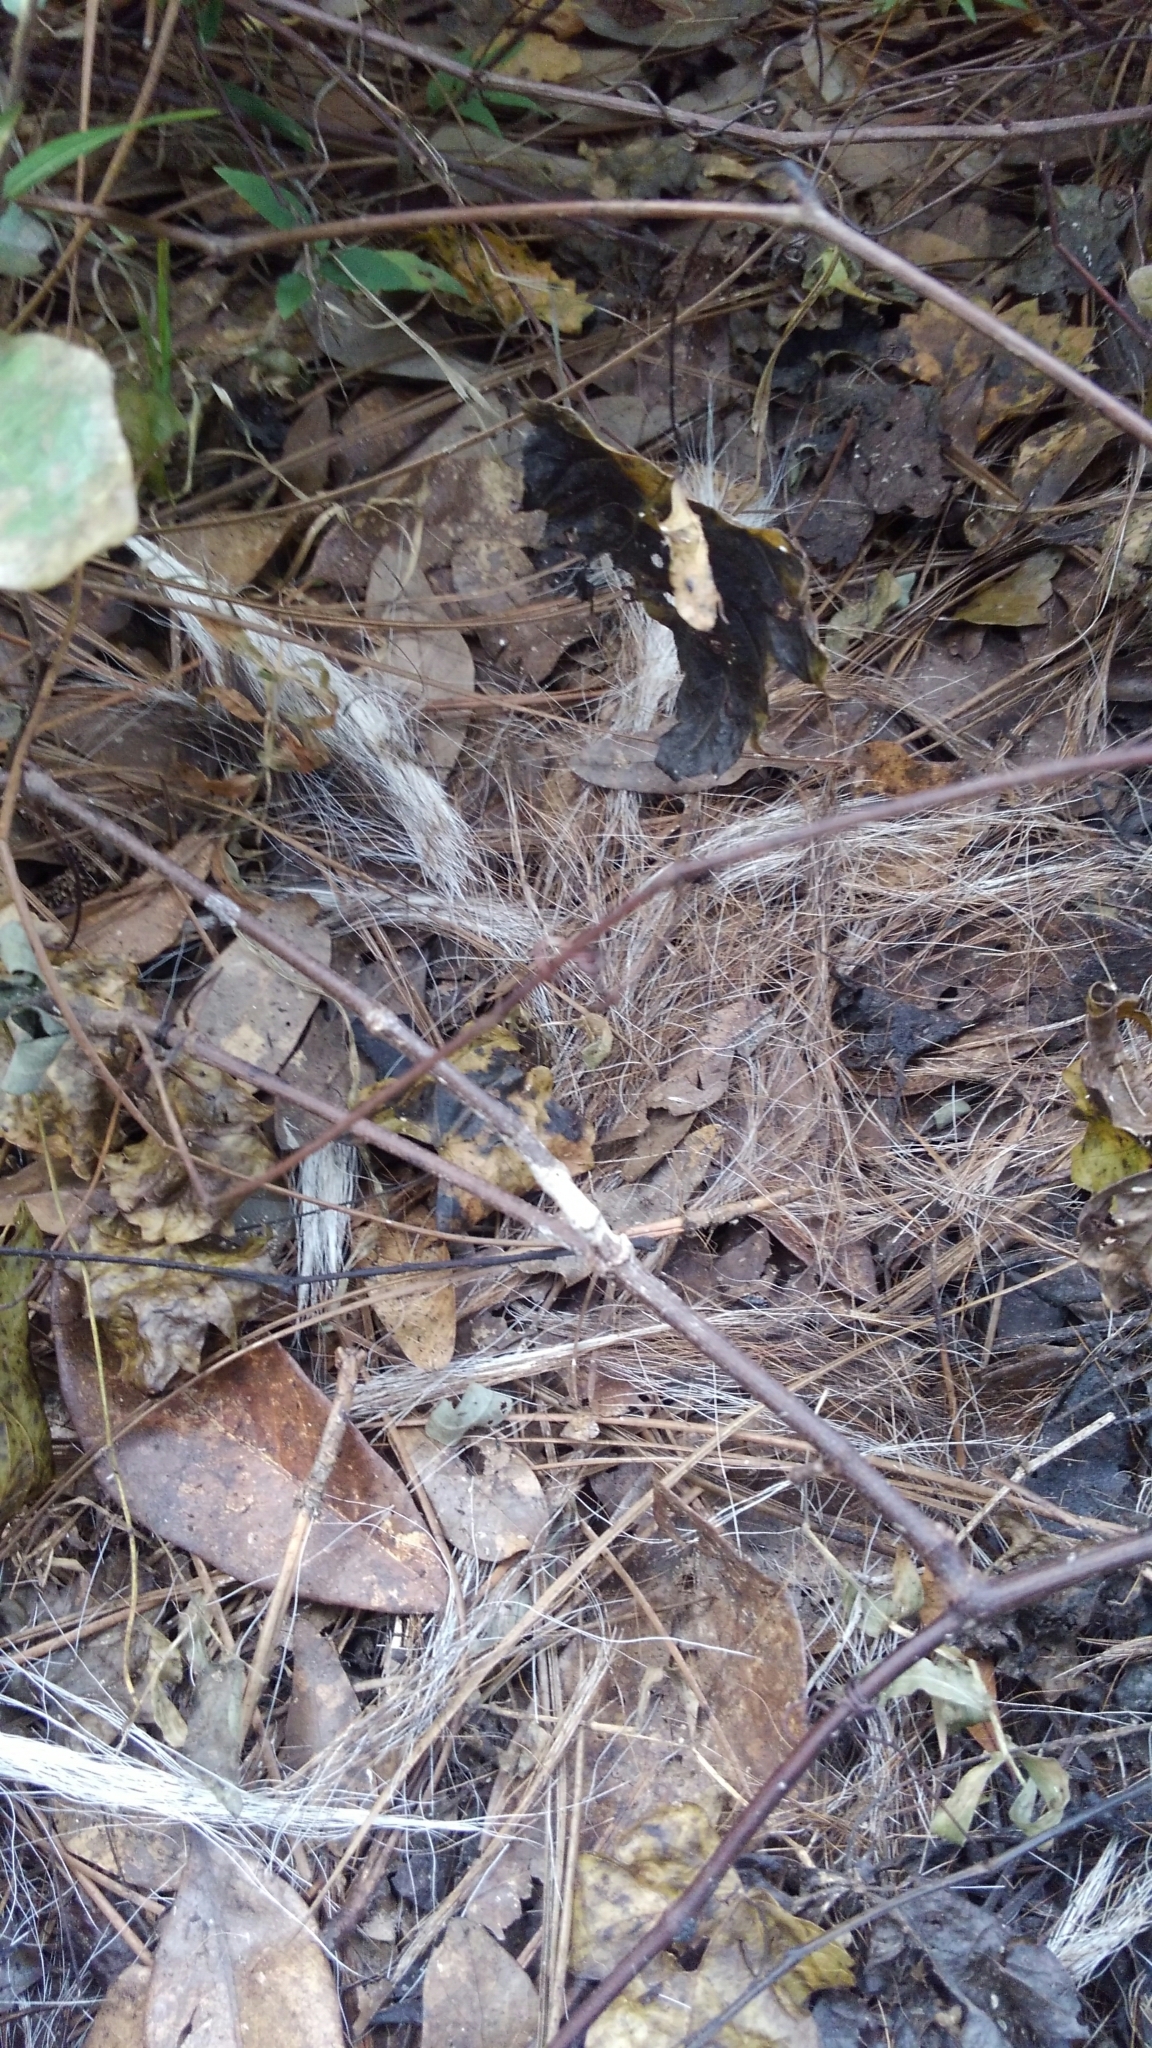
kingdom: Animalia
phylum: Chordata
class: Mammalia
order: Artiodactyla
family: Cervidae
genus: Odocoileus
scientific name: Odocoileus virginianus
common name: White-tailed deer
